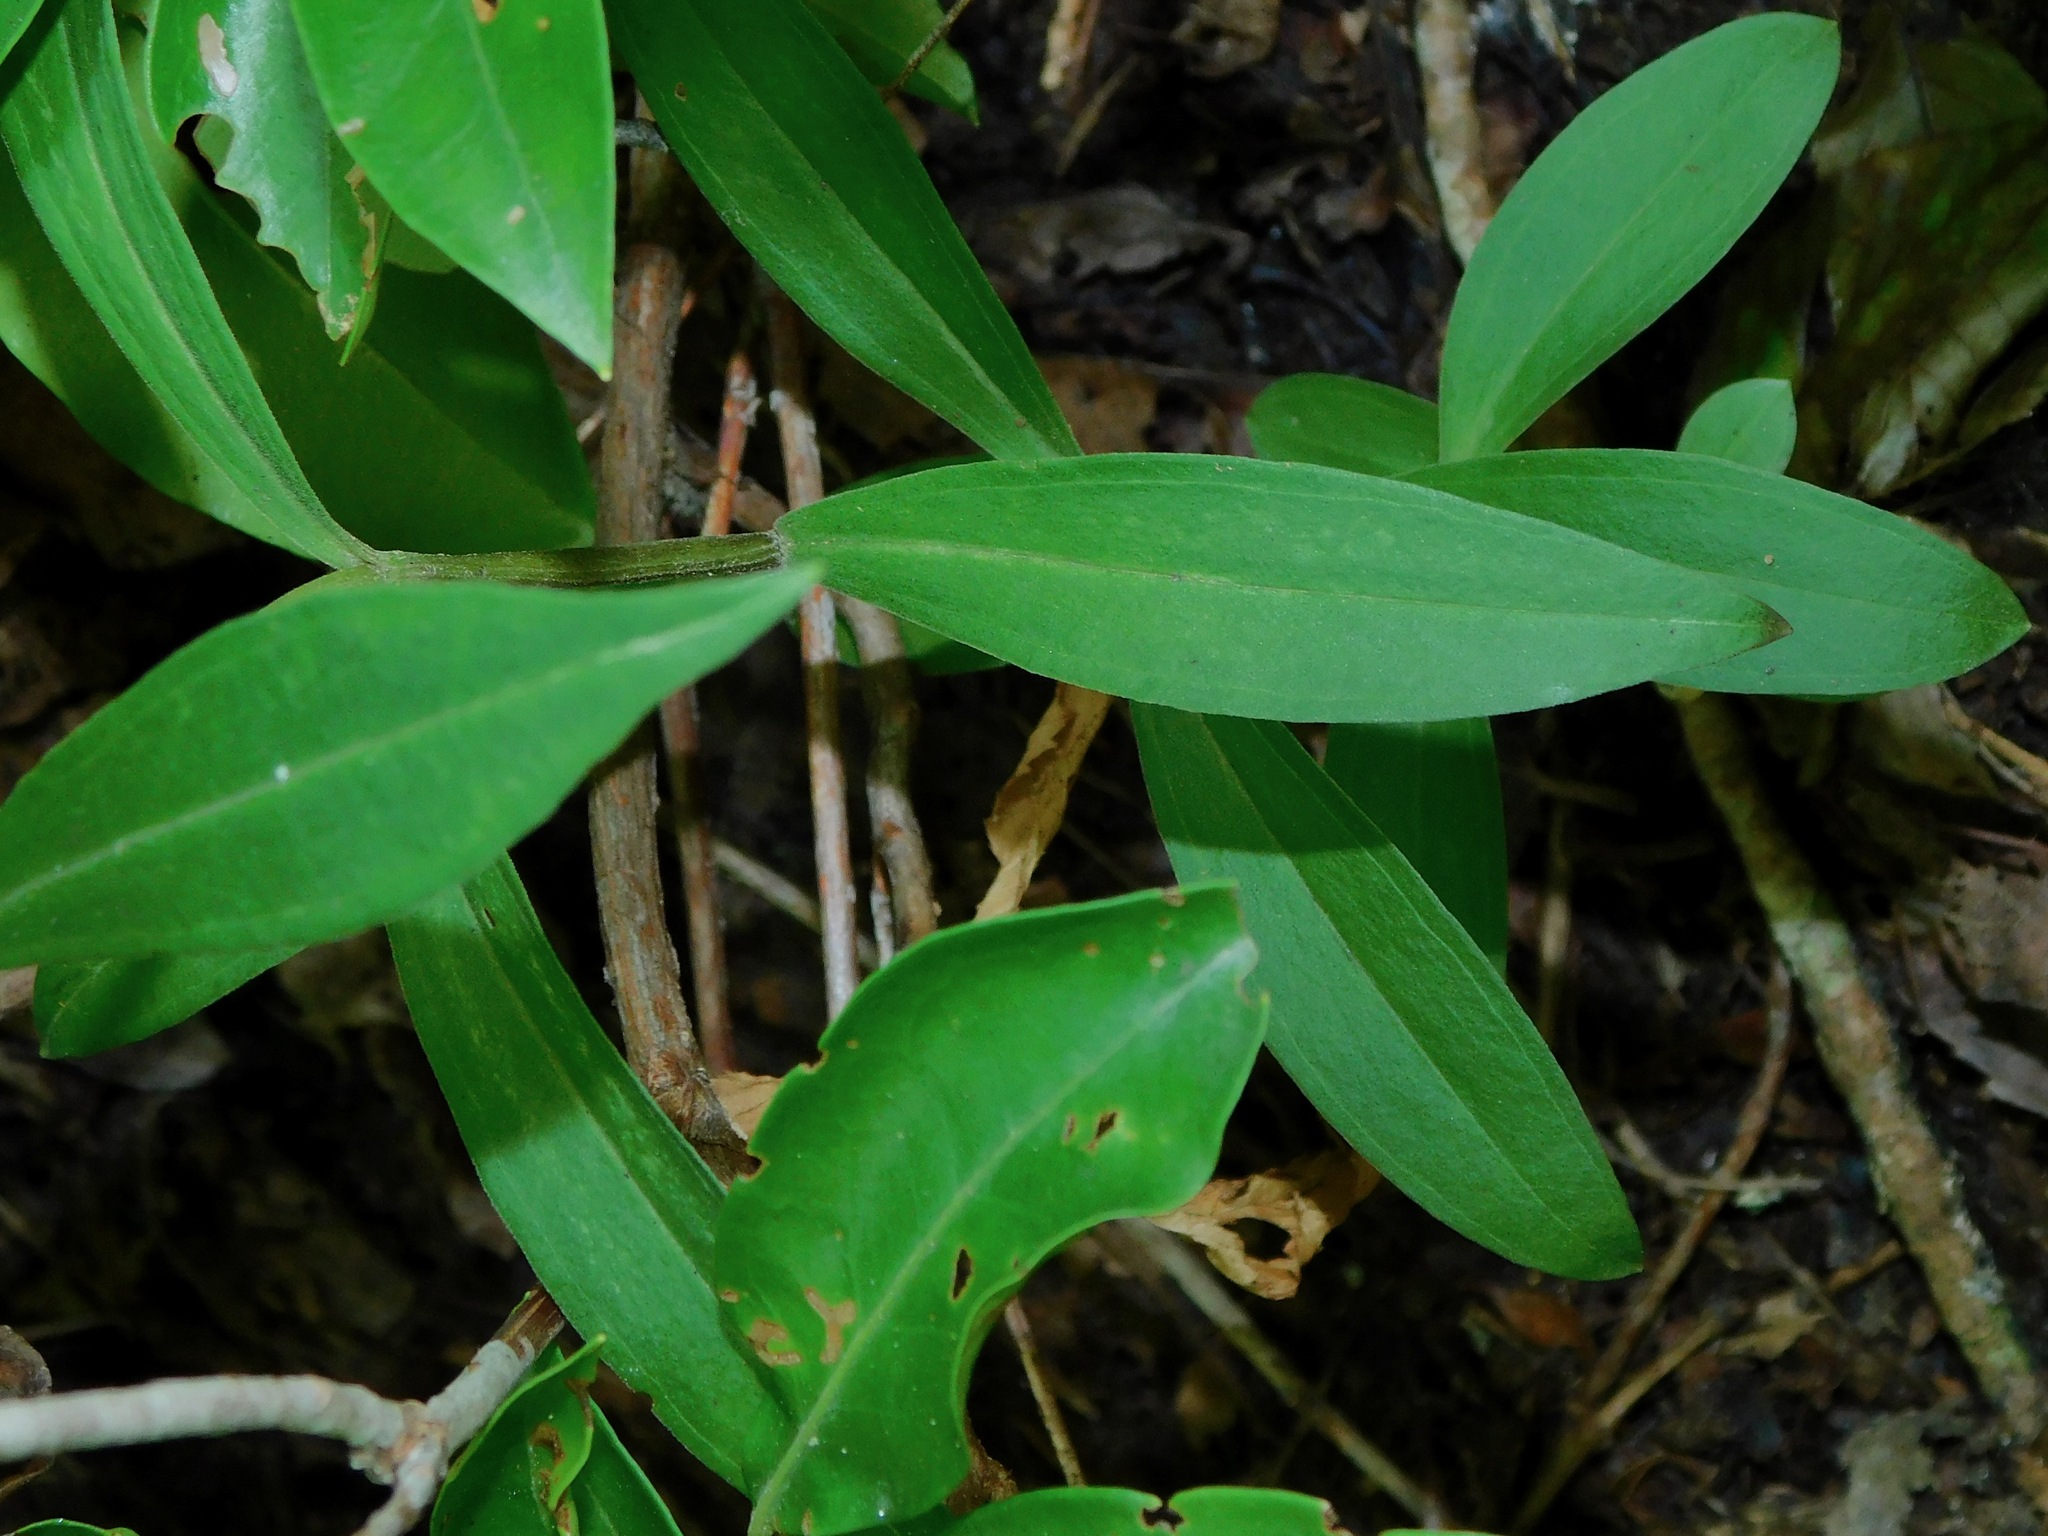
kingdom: Plantae
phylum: Tracheophyta
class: Magnoliopsida
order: Gentianales
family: Gentianaceae
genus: Gentiana
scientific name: Gentiana decora
